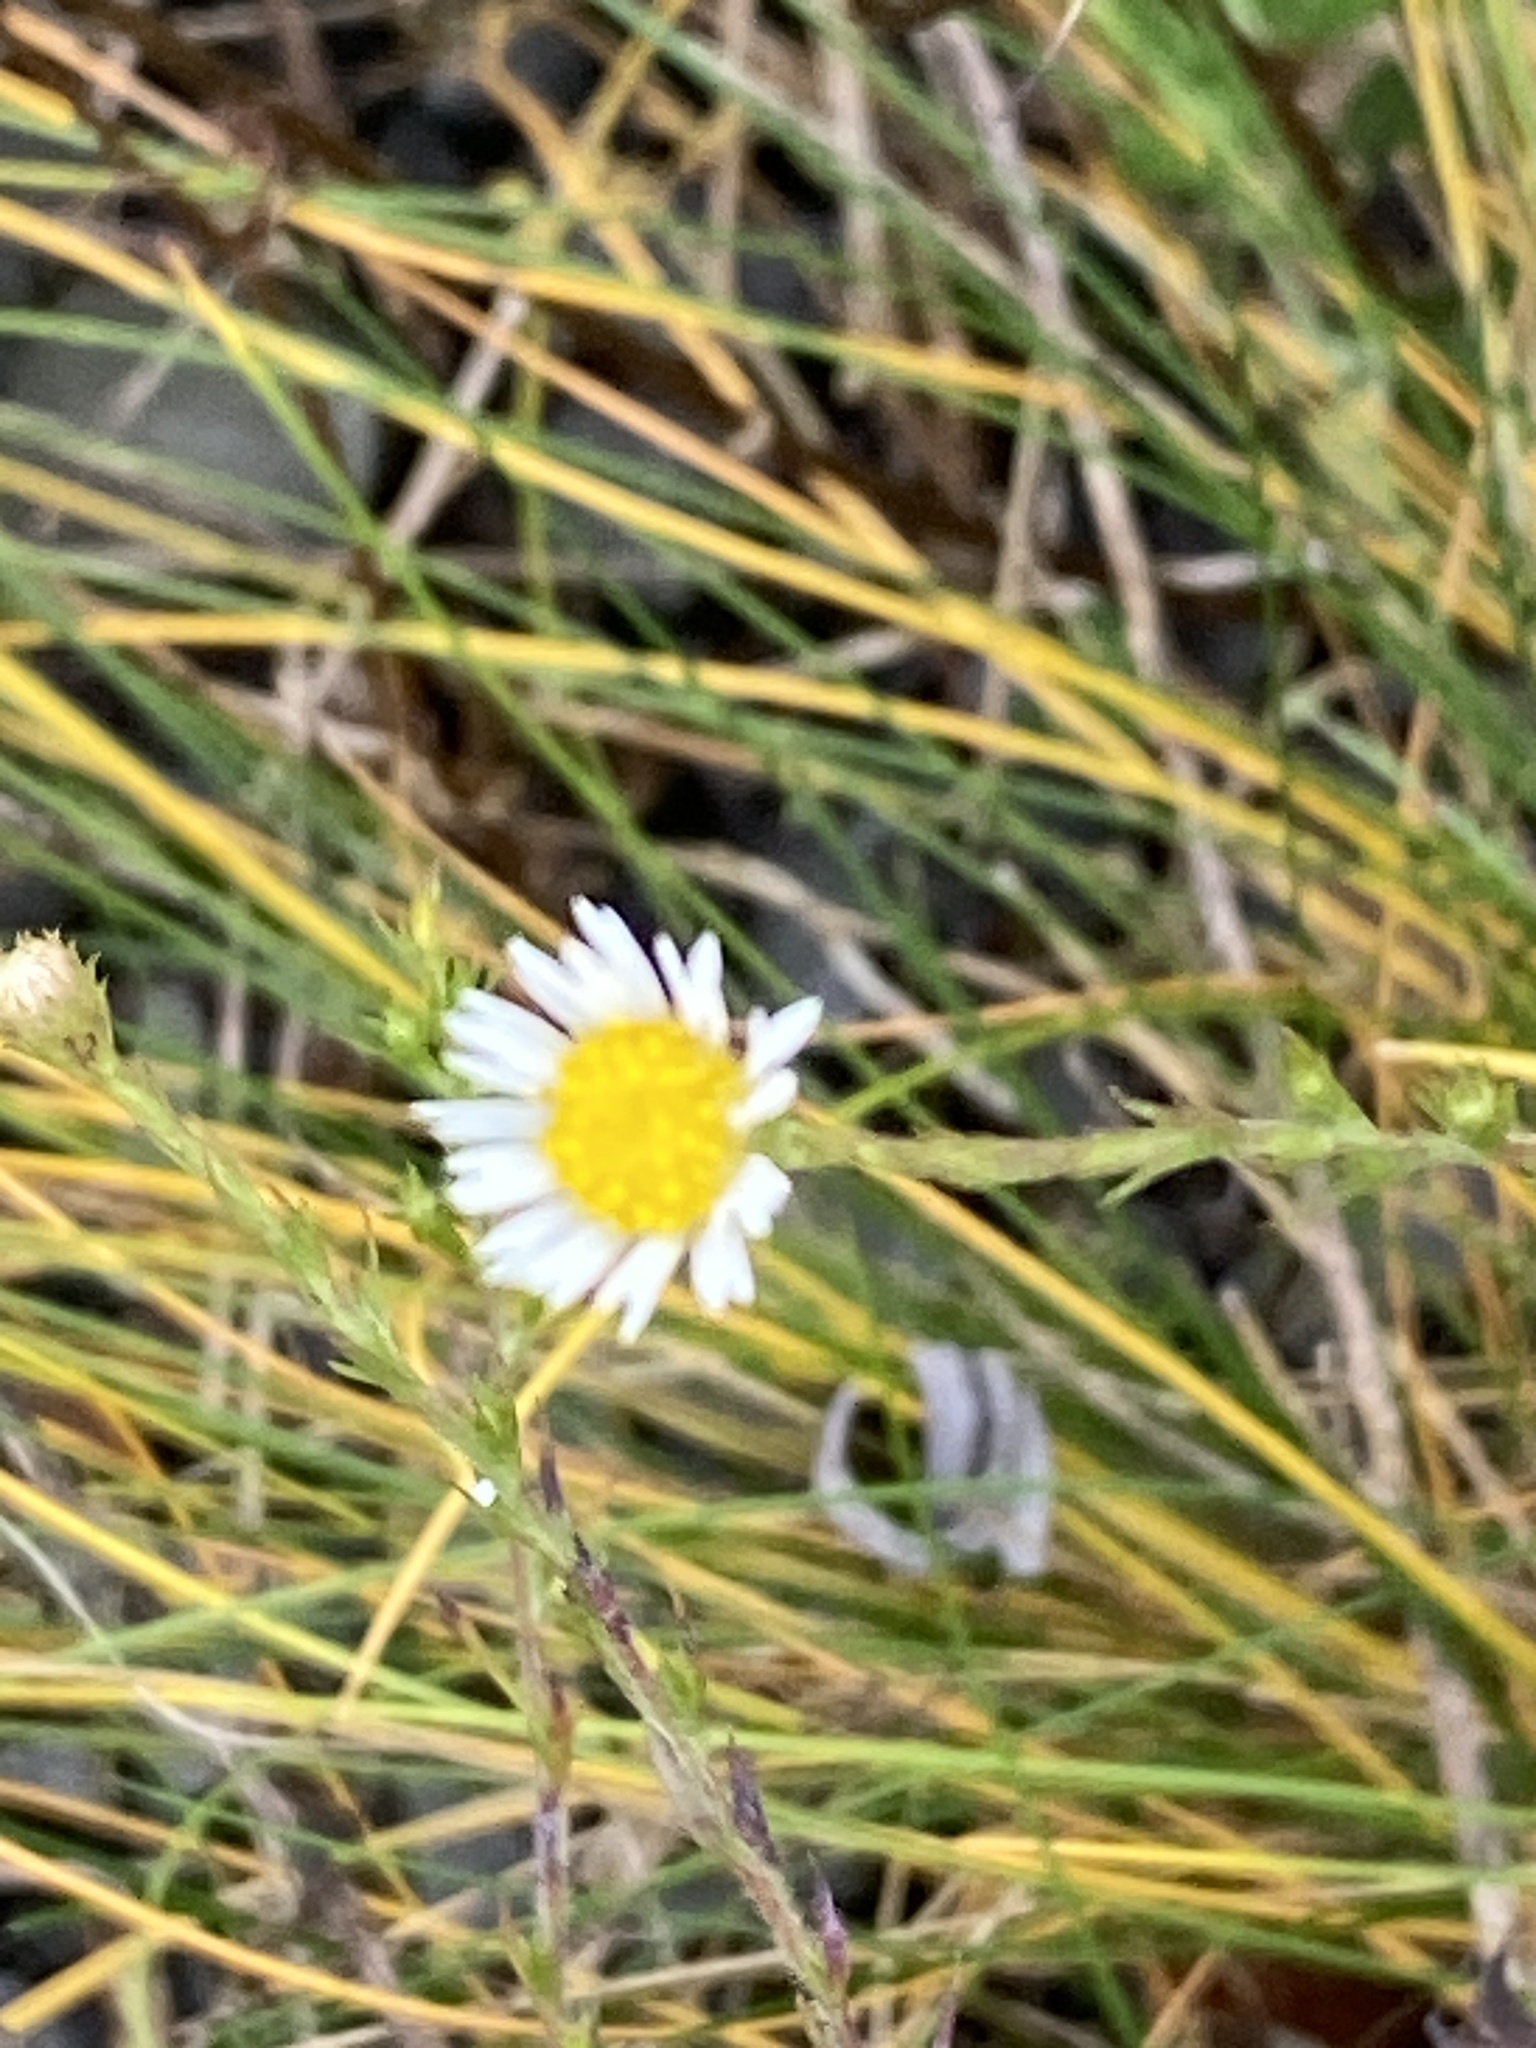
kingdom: Plantae
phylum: Tracheophyta
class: Magnoliopsida
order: Asterales
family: Asteraceae
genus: Symphyotrichum
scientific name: Symphyotrichum pilosum
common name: Awl aster
